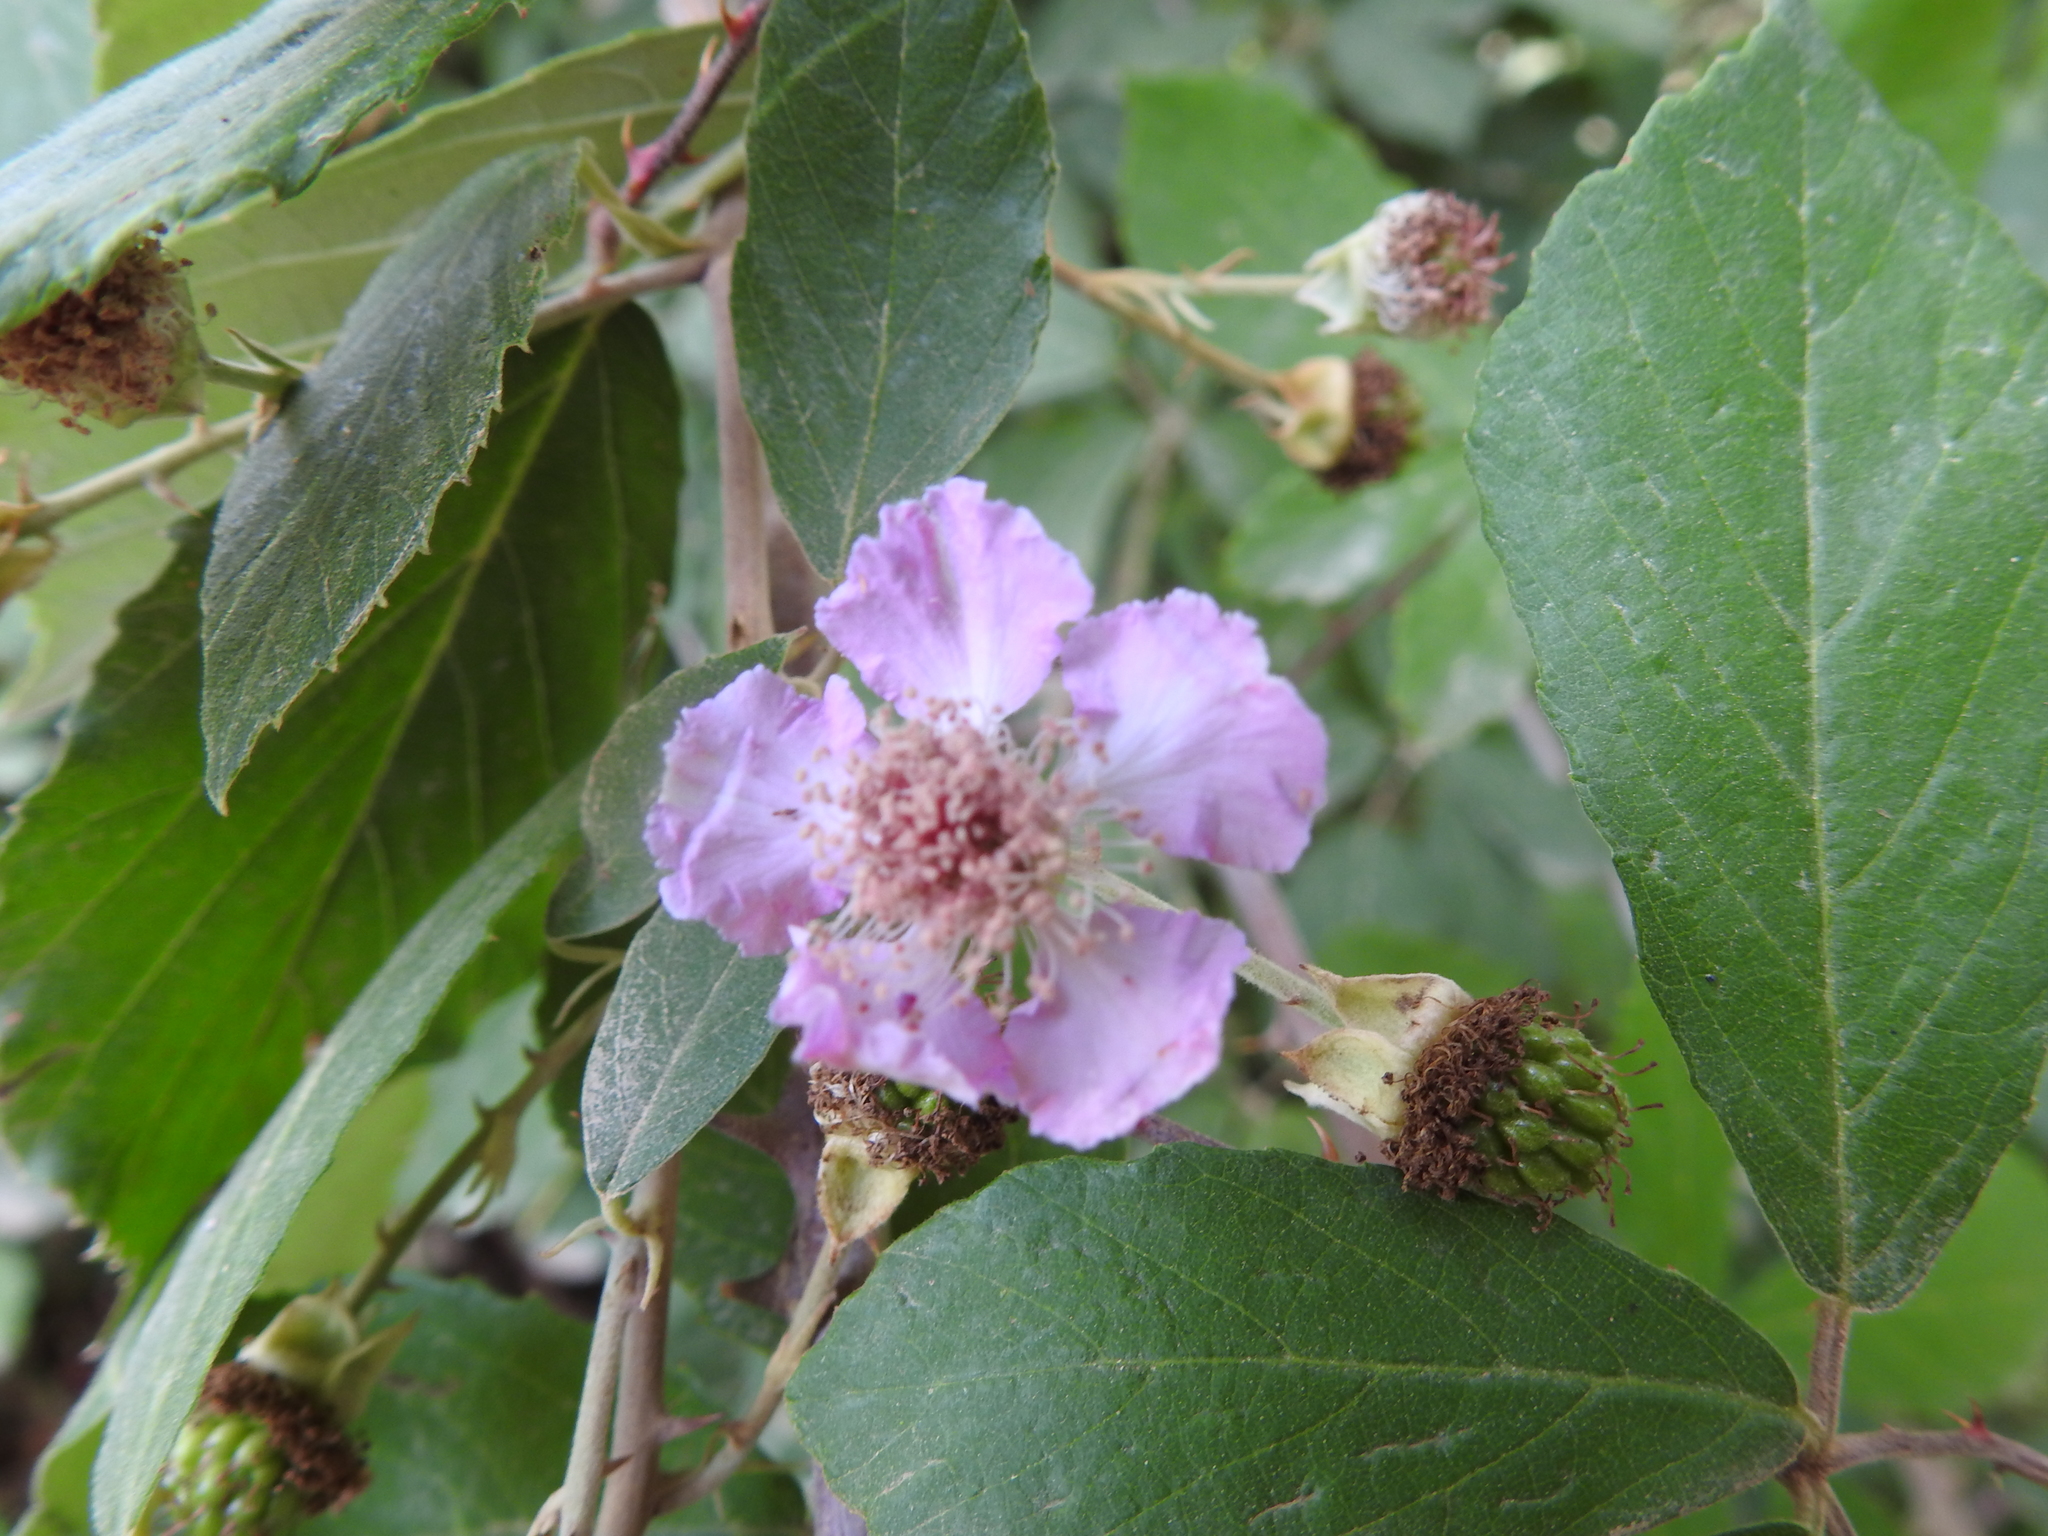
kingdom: Plantae
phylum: Tracheophyta
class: Magnoliopsida
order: Rosales
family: Rosaceae
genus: Rubus
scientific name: Rubus ulmifolius
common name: Elmleaf blackberry
